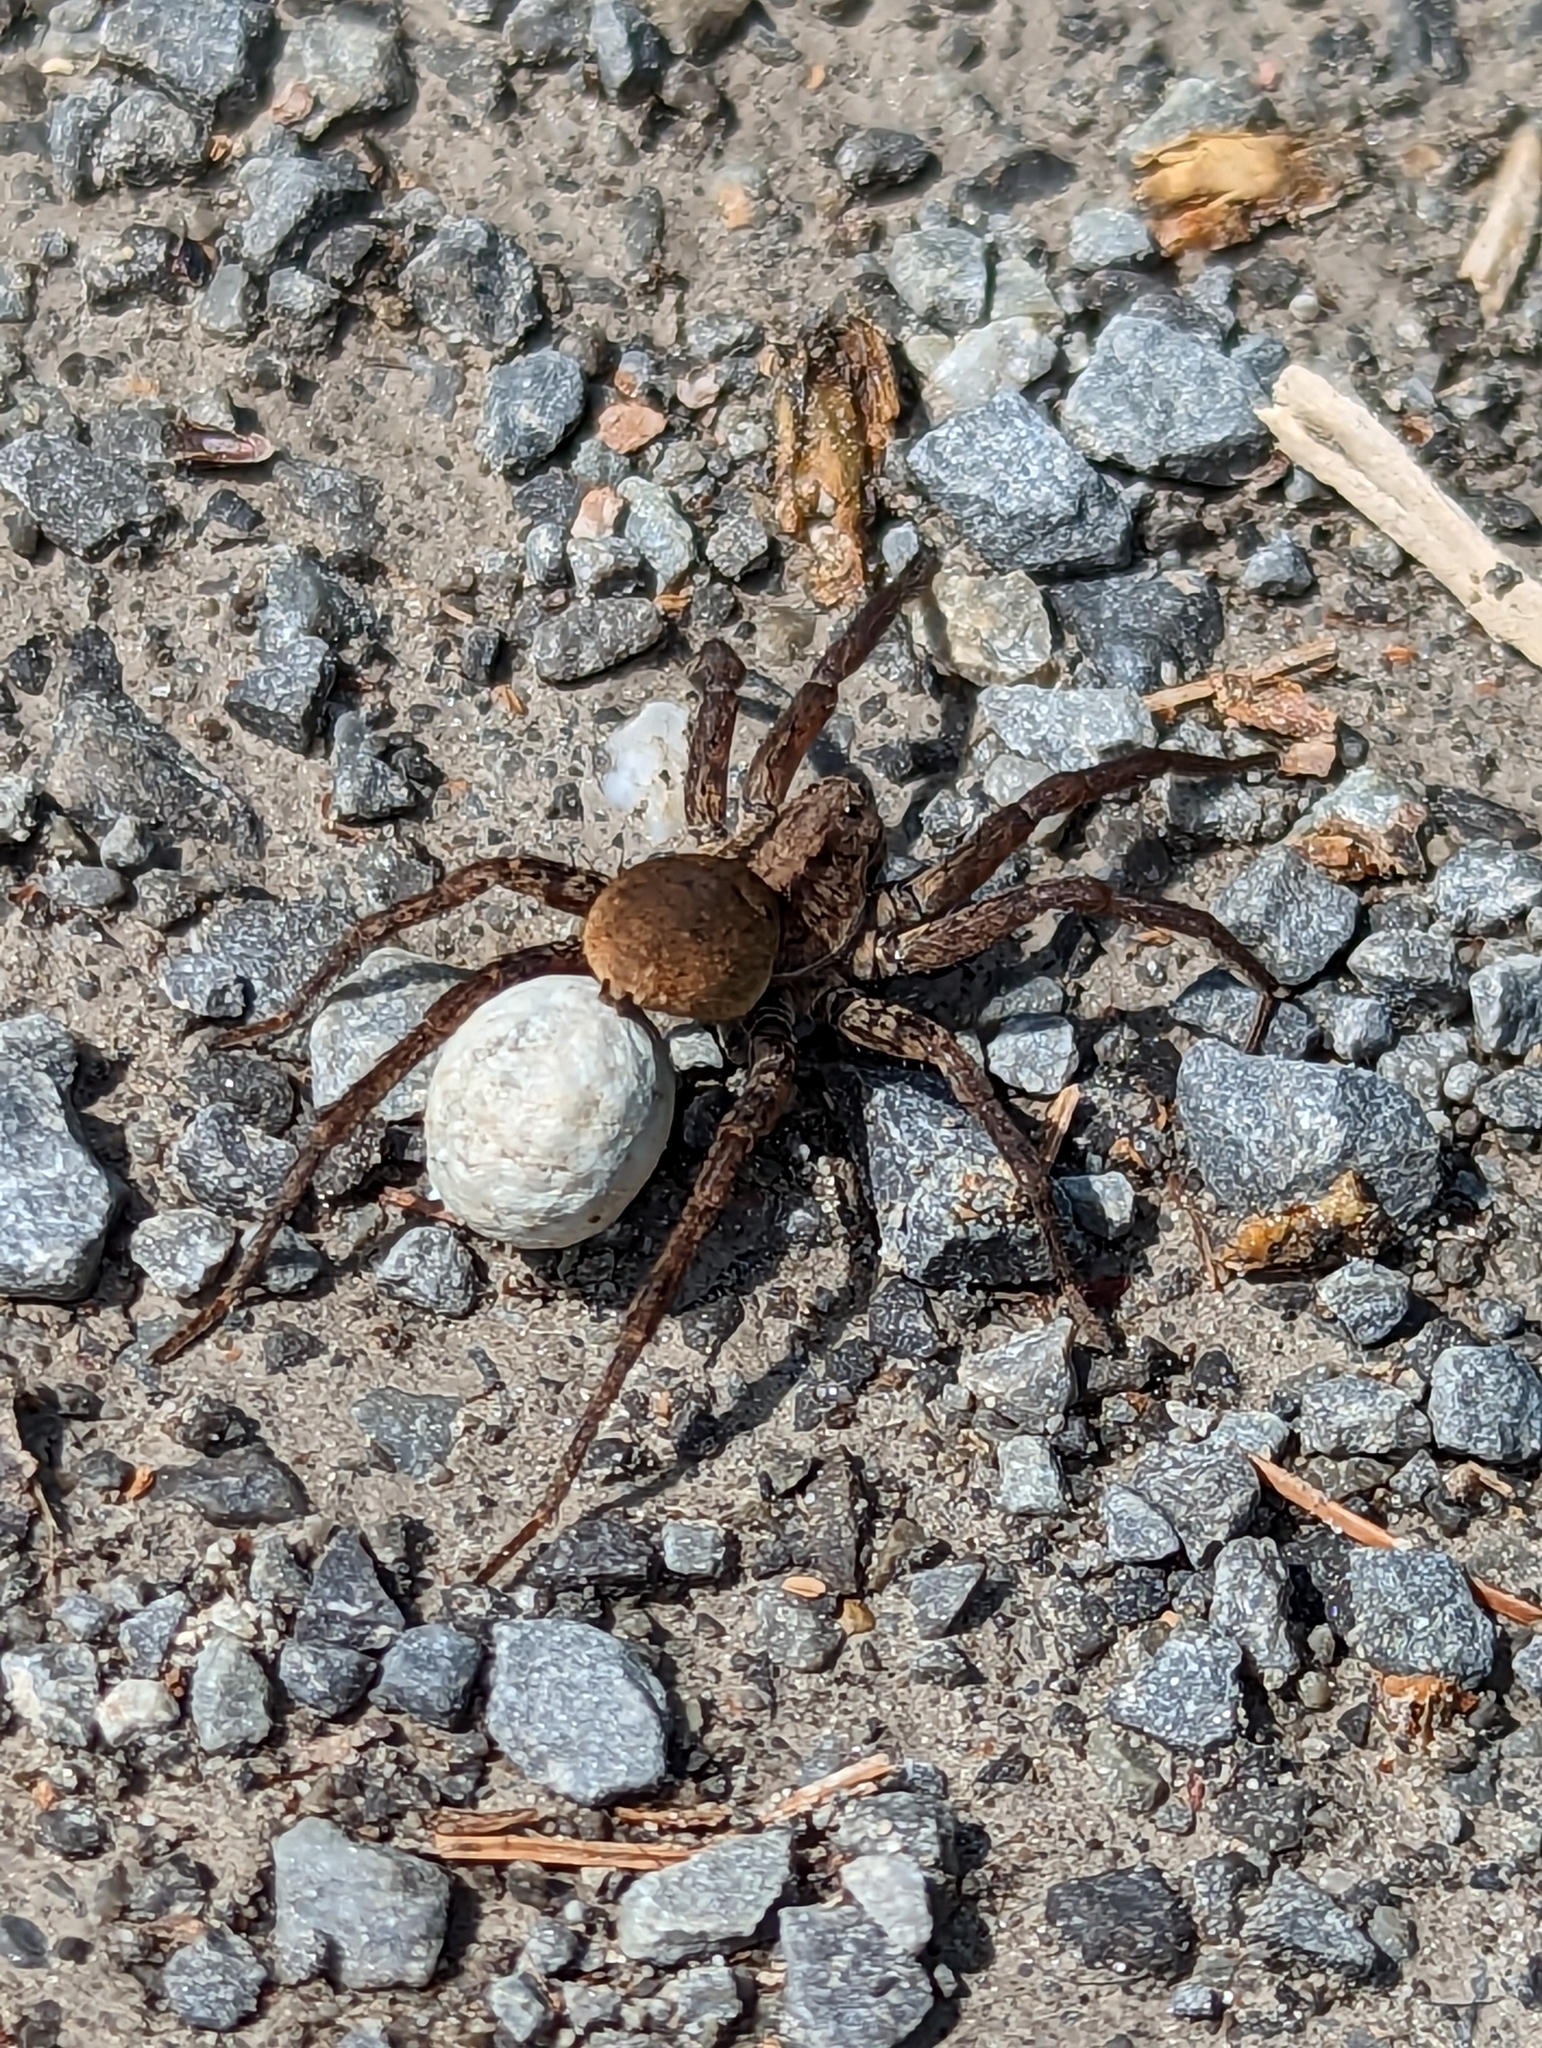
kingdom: Animalia
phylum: Arthropoda
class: Arachnida
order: Araneae
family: Lycosidae
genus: Gladicosa
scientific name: Gladicosa gulosa
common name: Drumming sword wolf spider
